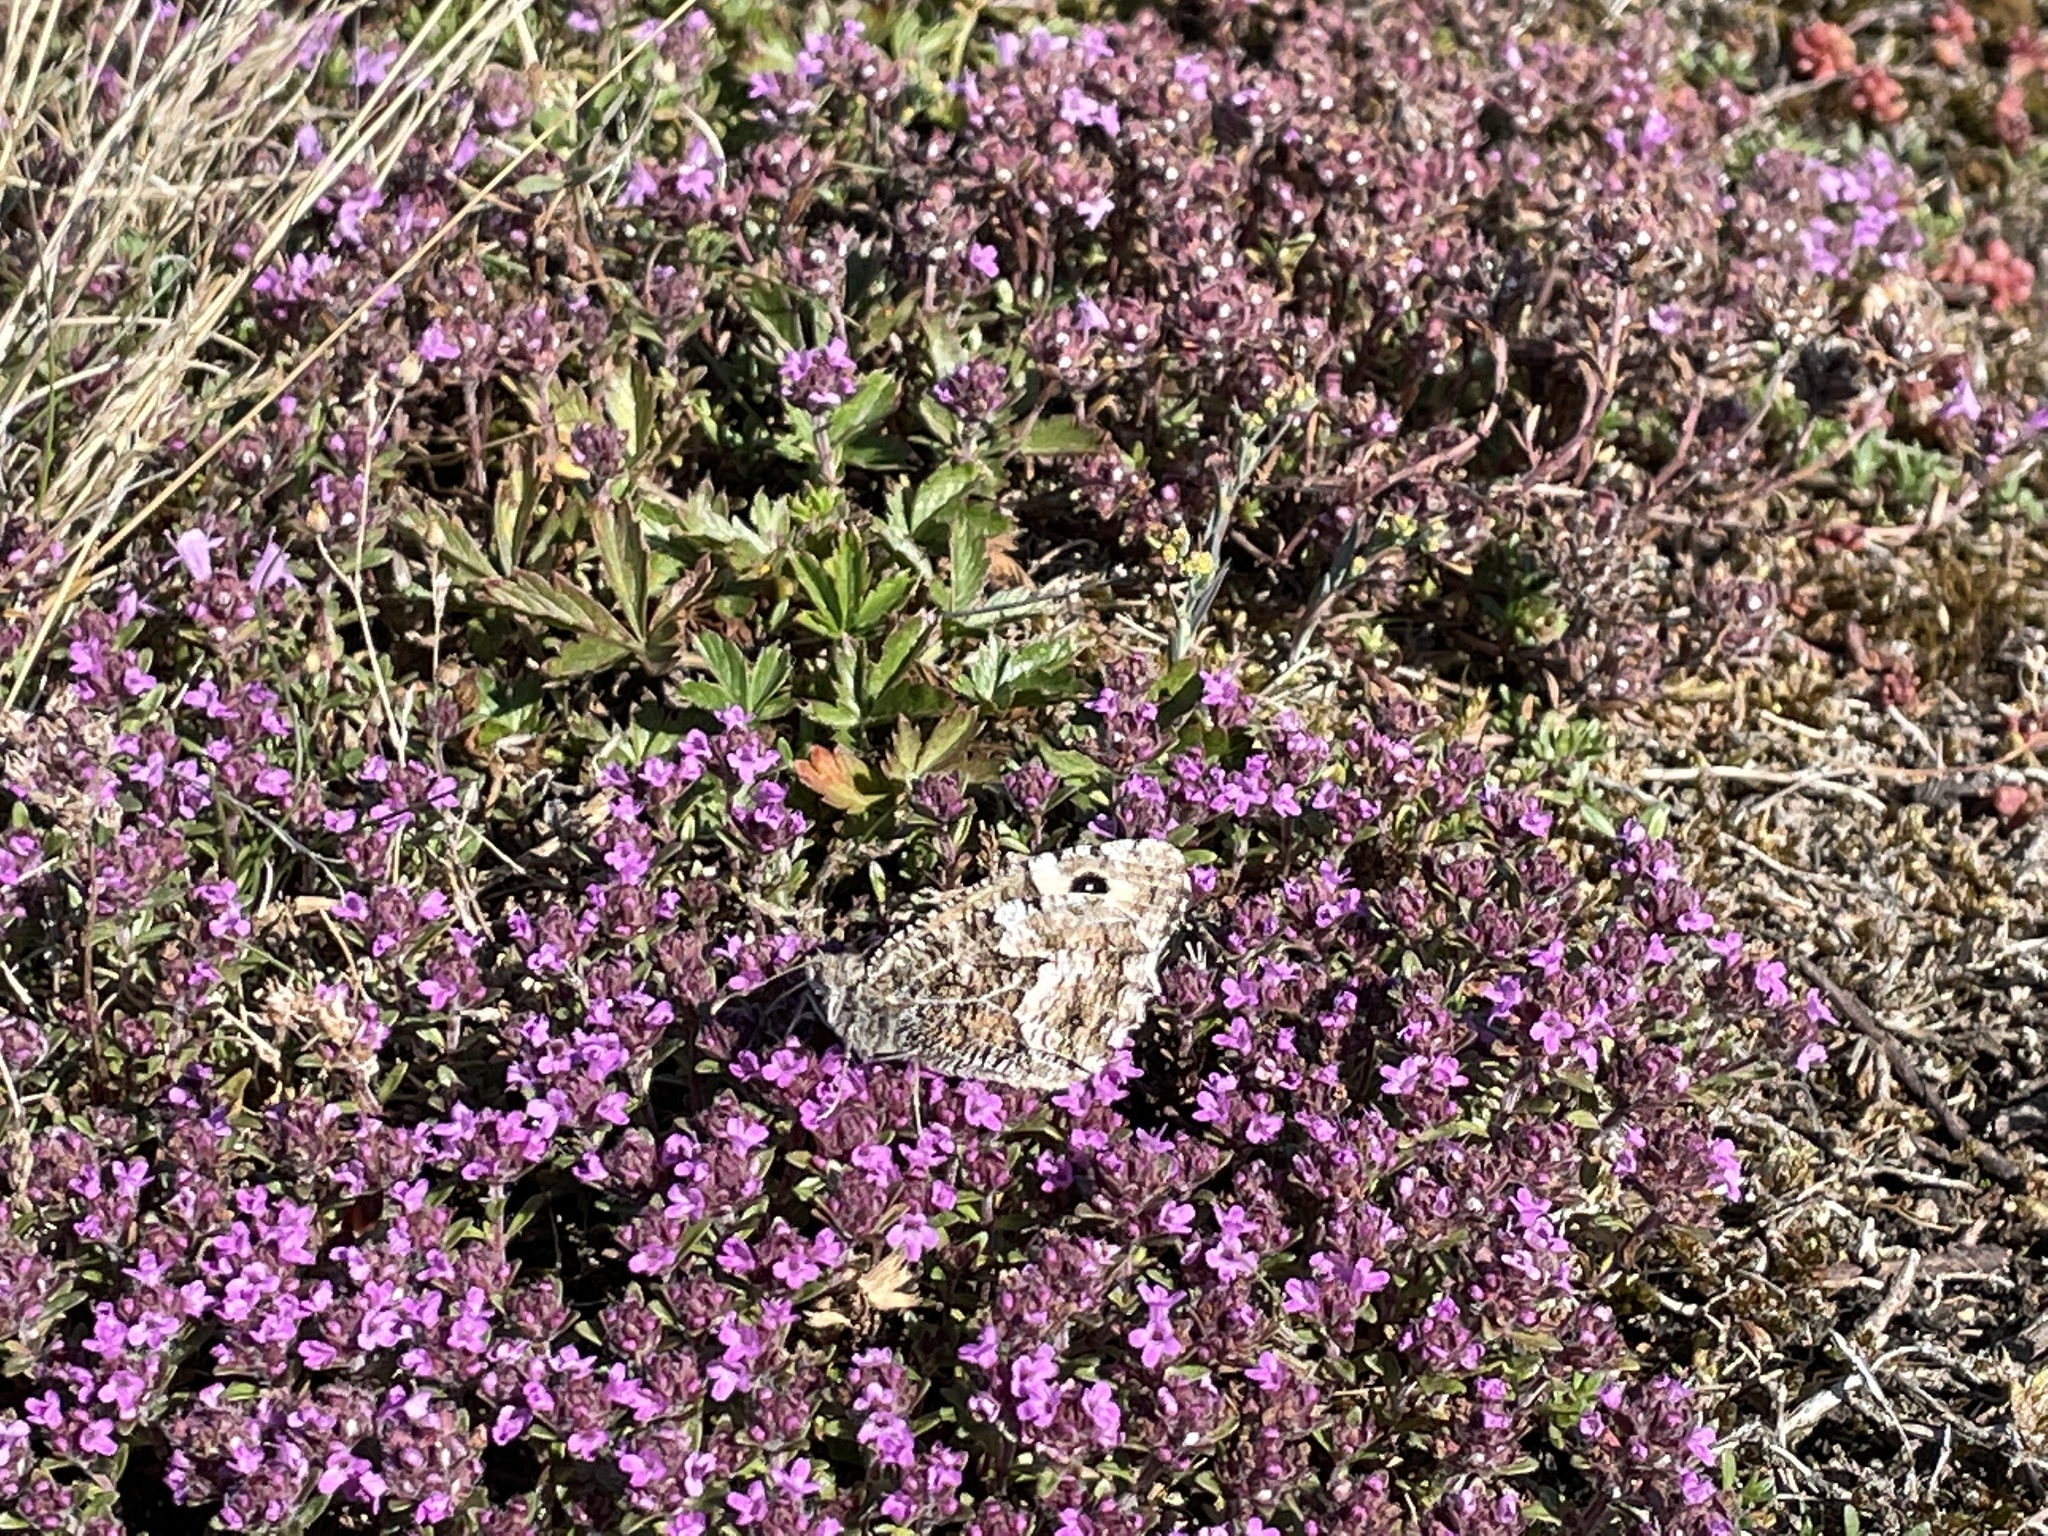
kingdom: Animalia
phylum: Arthropoda
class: Insecta
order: Lepidoptera
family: Nymphalidae
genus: Hipparchia
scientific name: Hipparchia semele
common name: Grayling
